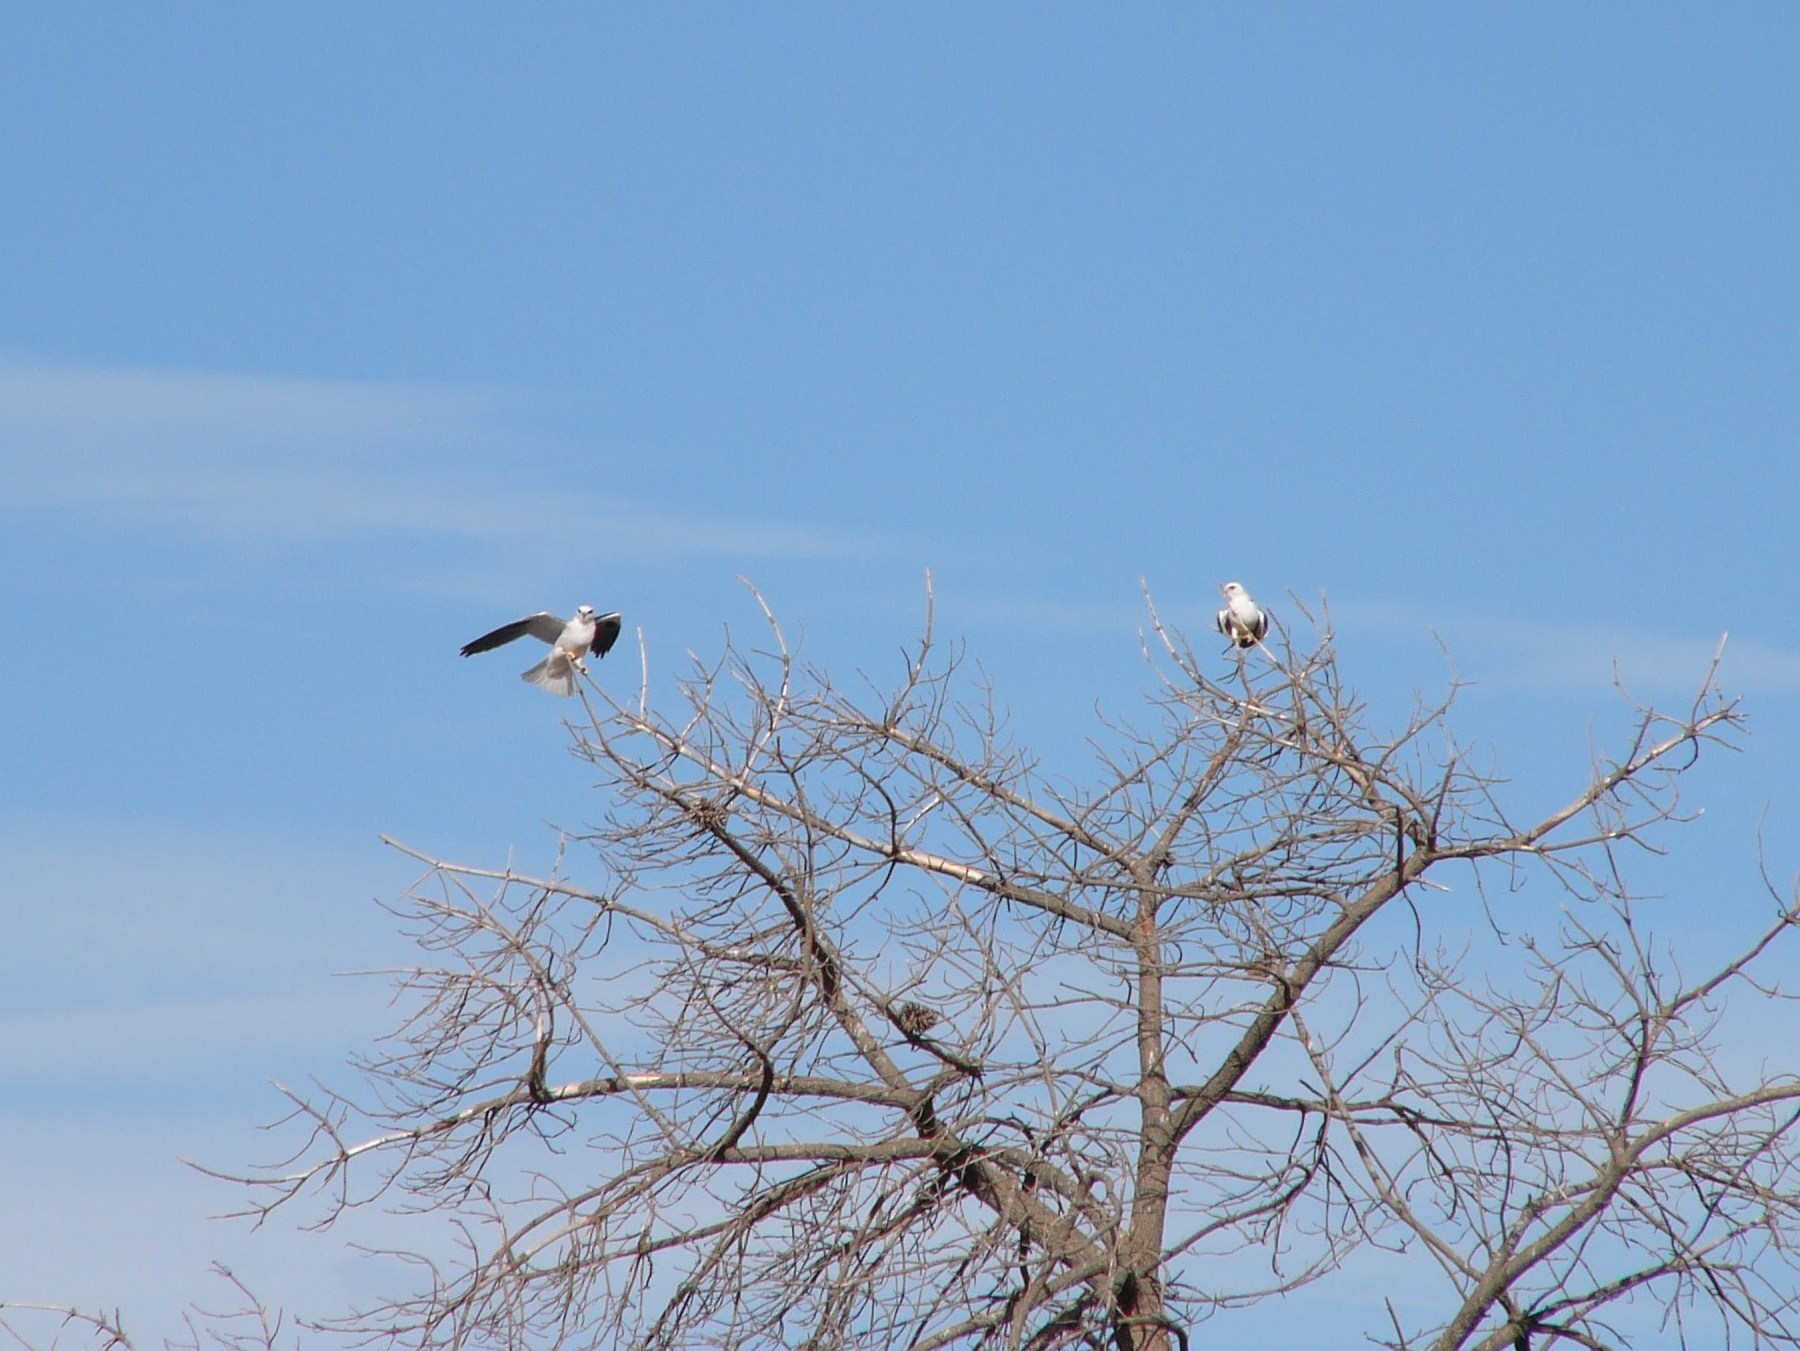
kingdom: Animalia
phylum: Chordata
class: Aves
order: Accipitriformes
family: Accipitridae
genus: Elanus
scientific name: Elanus axillaris
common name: Black-shouldered kite
